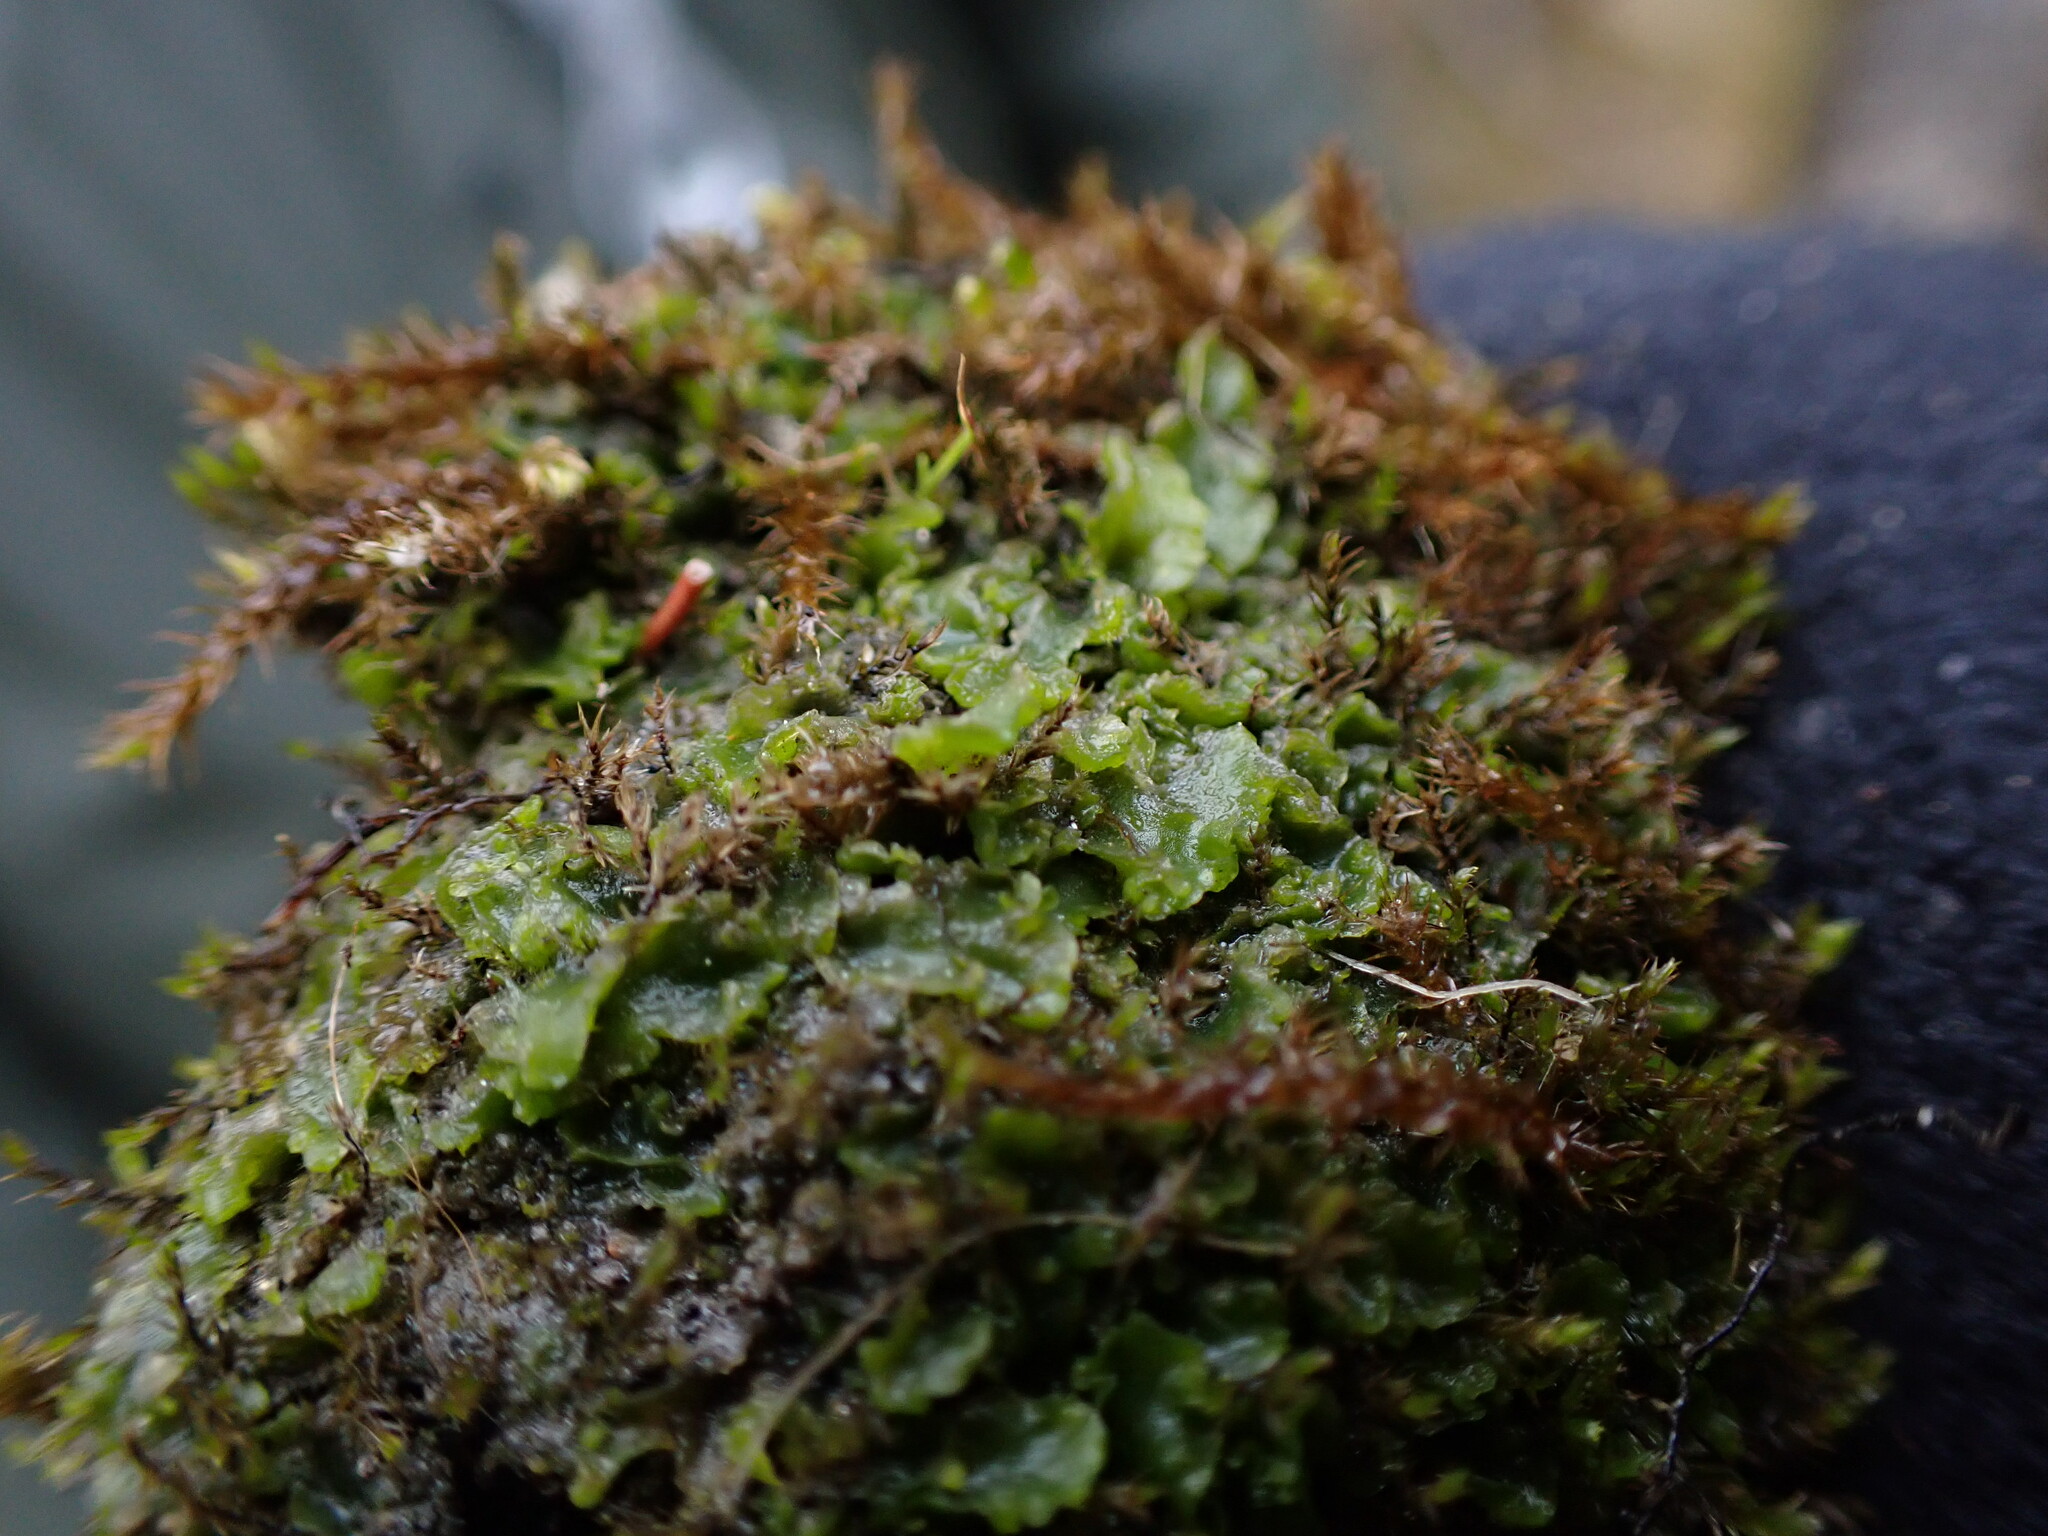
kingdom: Plantae
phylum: Marchantiophyta
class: Jungermanniopsida
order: Metzgeriales
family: Aneuraceae
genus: Aneura
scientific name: Aneura pinguis
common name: Common greasewort
